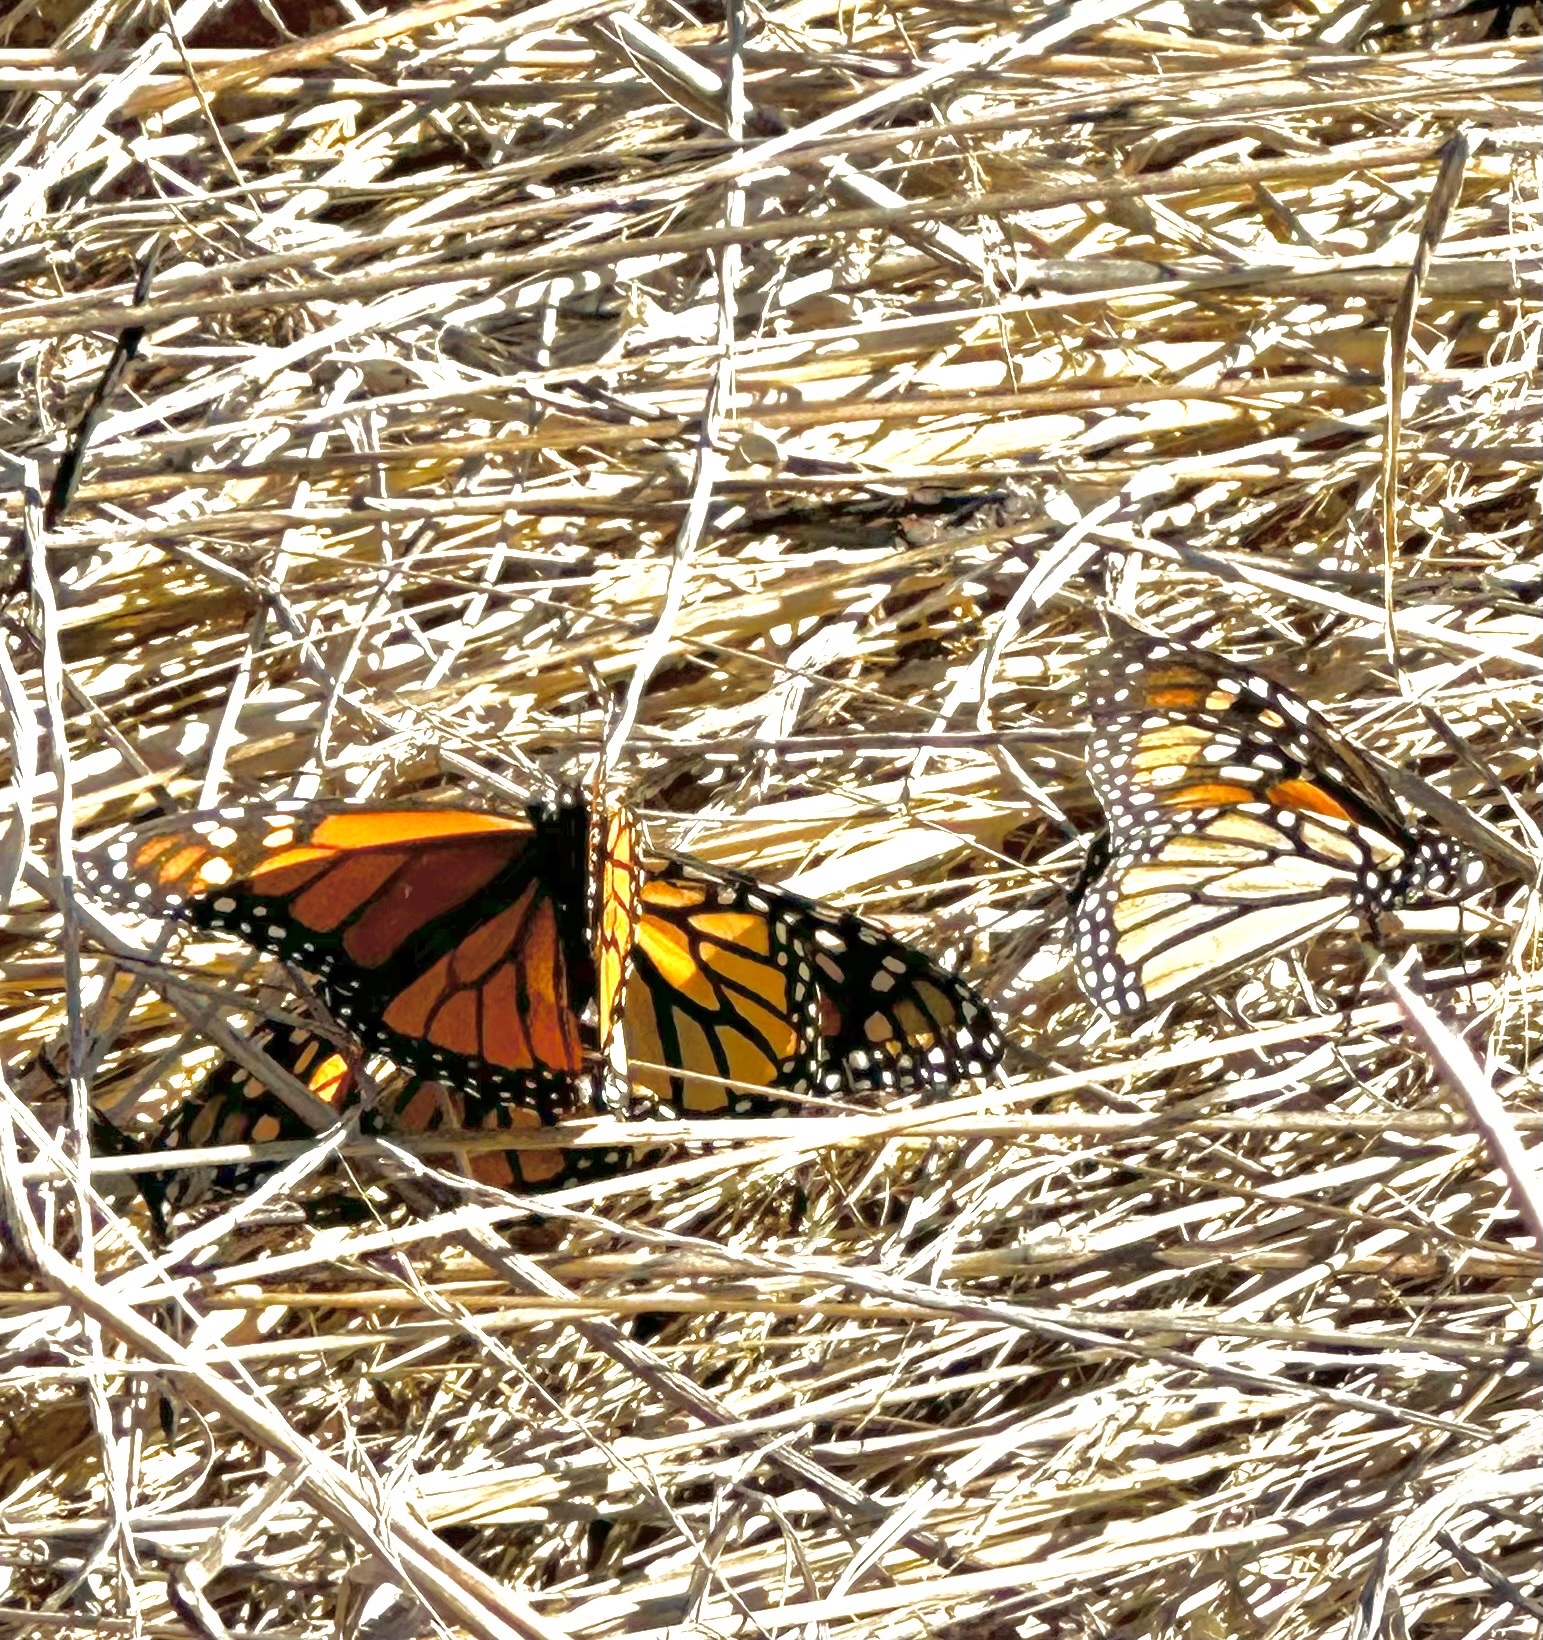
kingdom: Animalia
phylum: Arthropoda
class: Insecta
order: Lepidoptera
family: Nymphalidae
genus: Danaus
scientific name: Danaus plexippus
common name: Monarch
